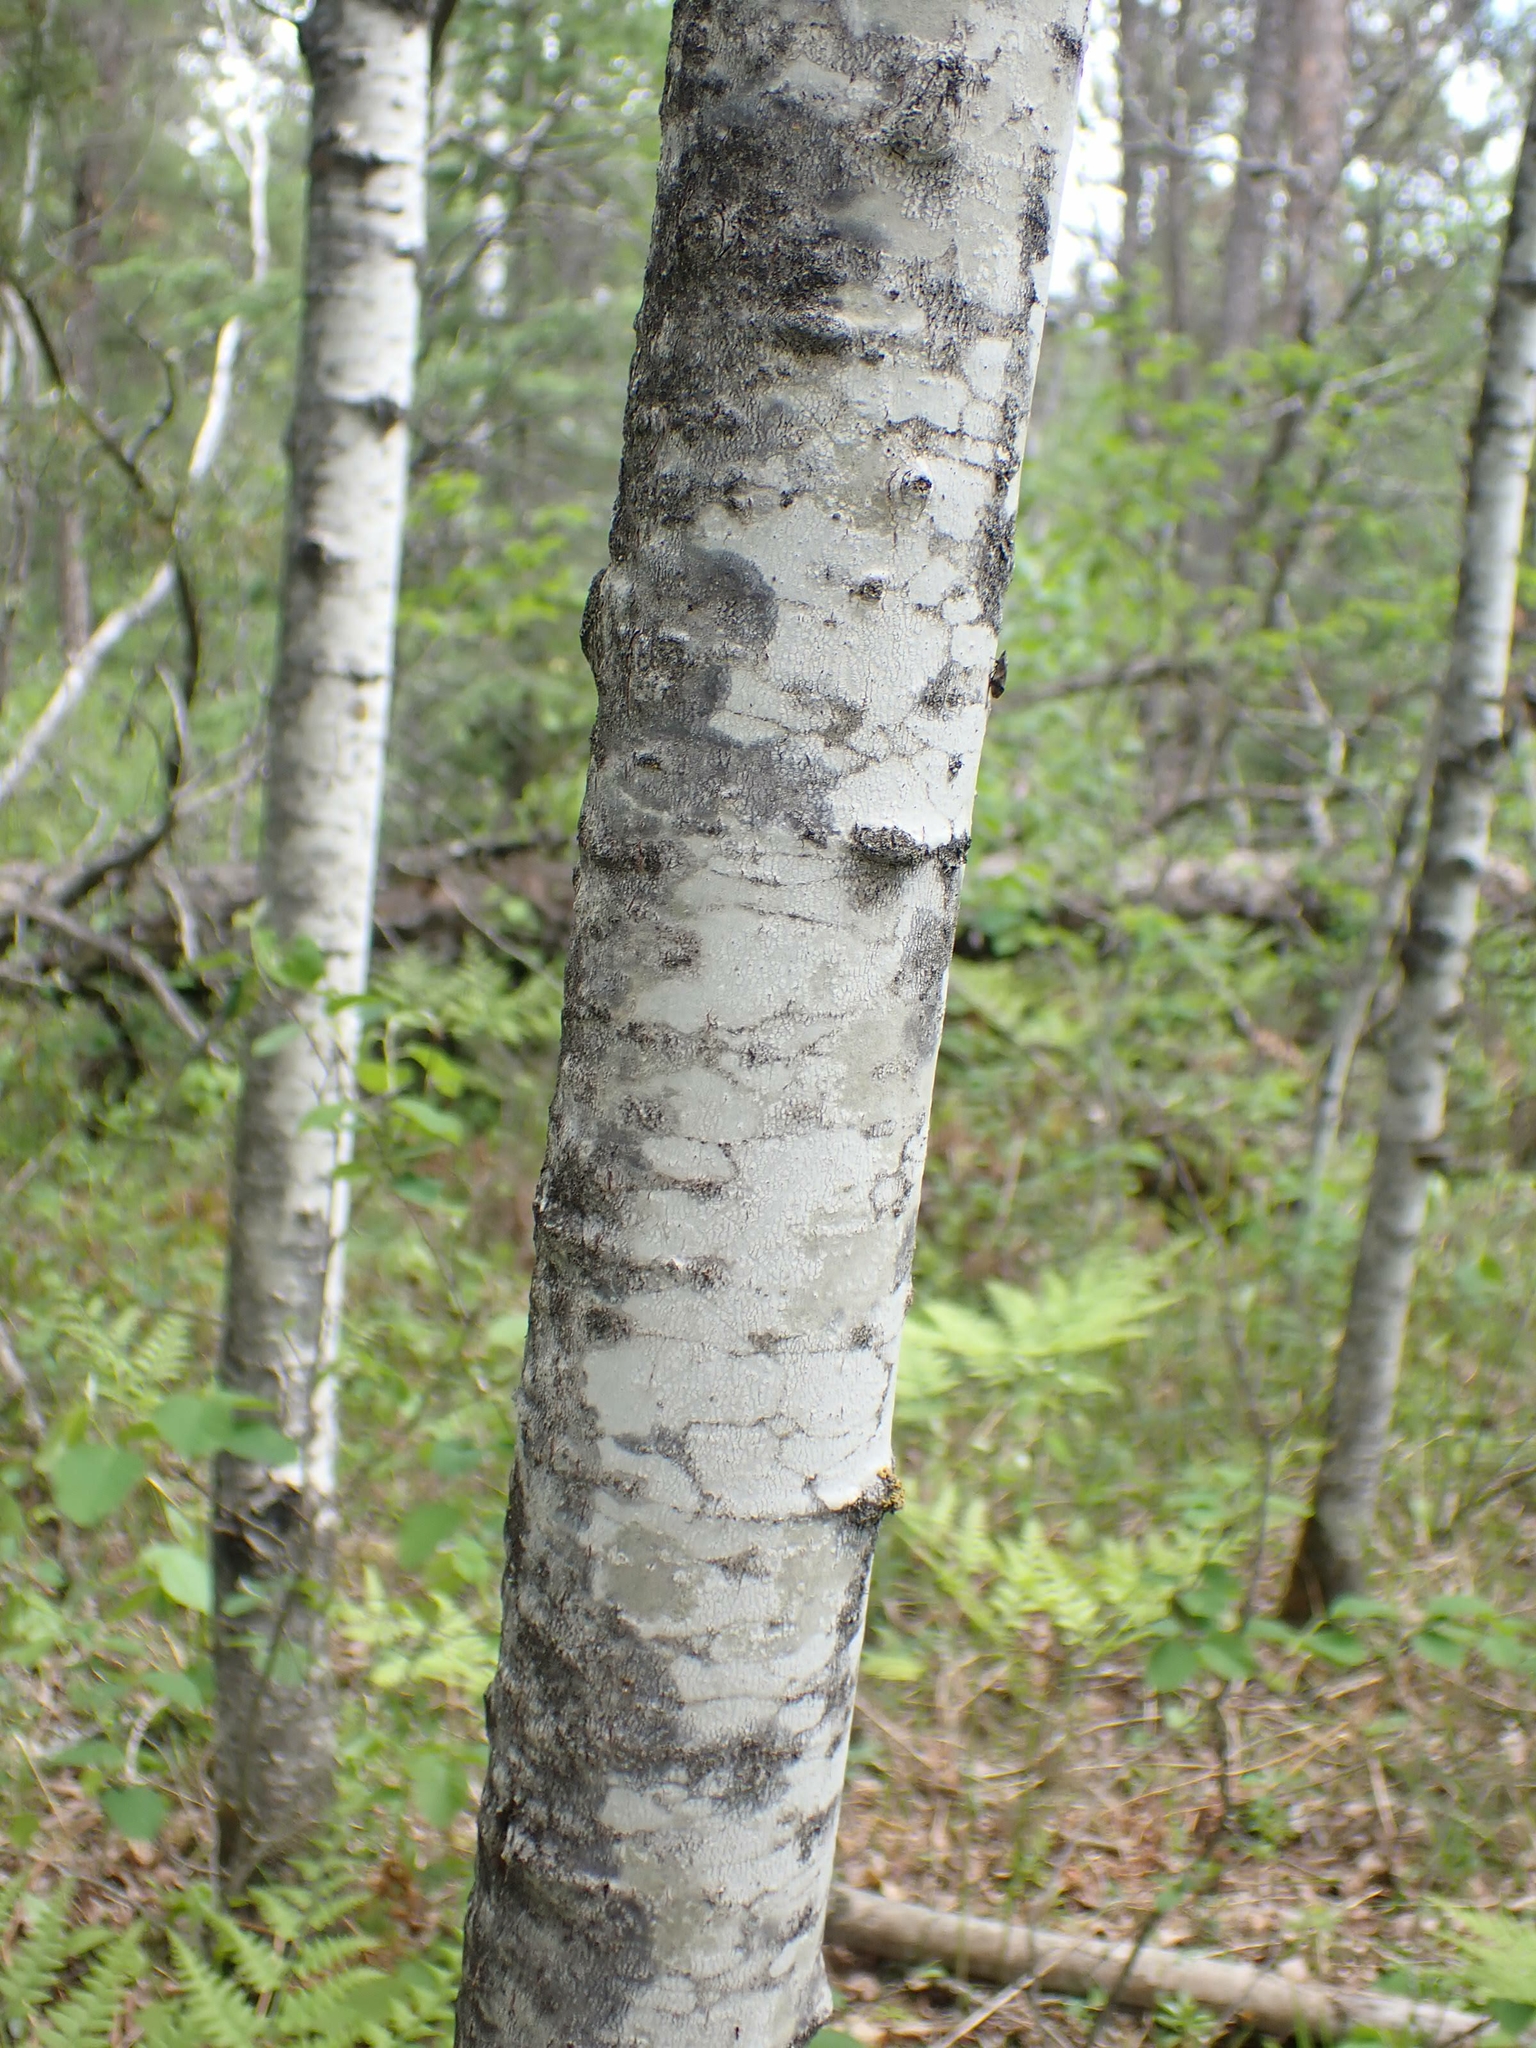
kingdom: Plantae
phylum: Tracheophyta
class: Magnoliopsida
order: Malpighiales
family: Salicaceae
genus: Populus
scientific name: Populus tremuloides
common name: Quaking aspen
